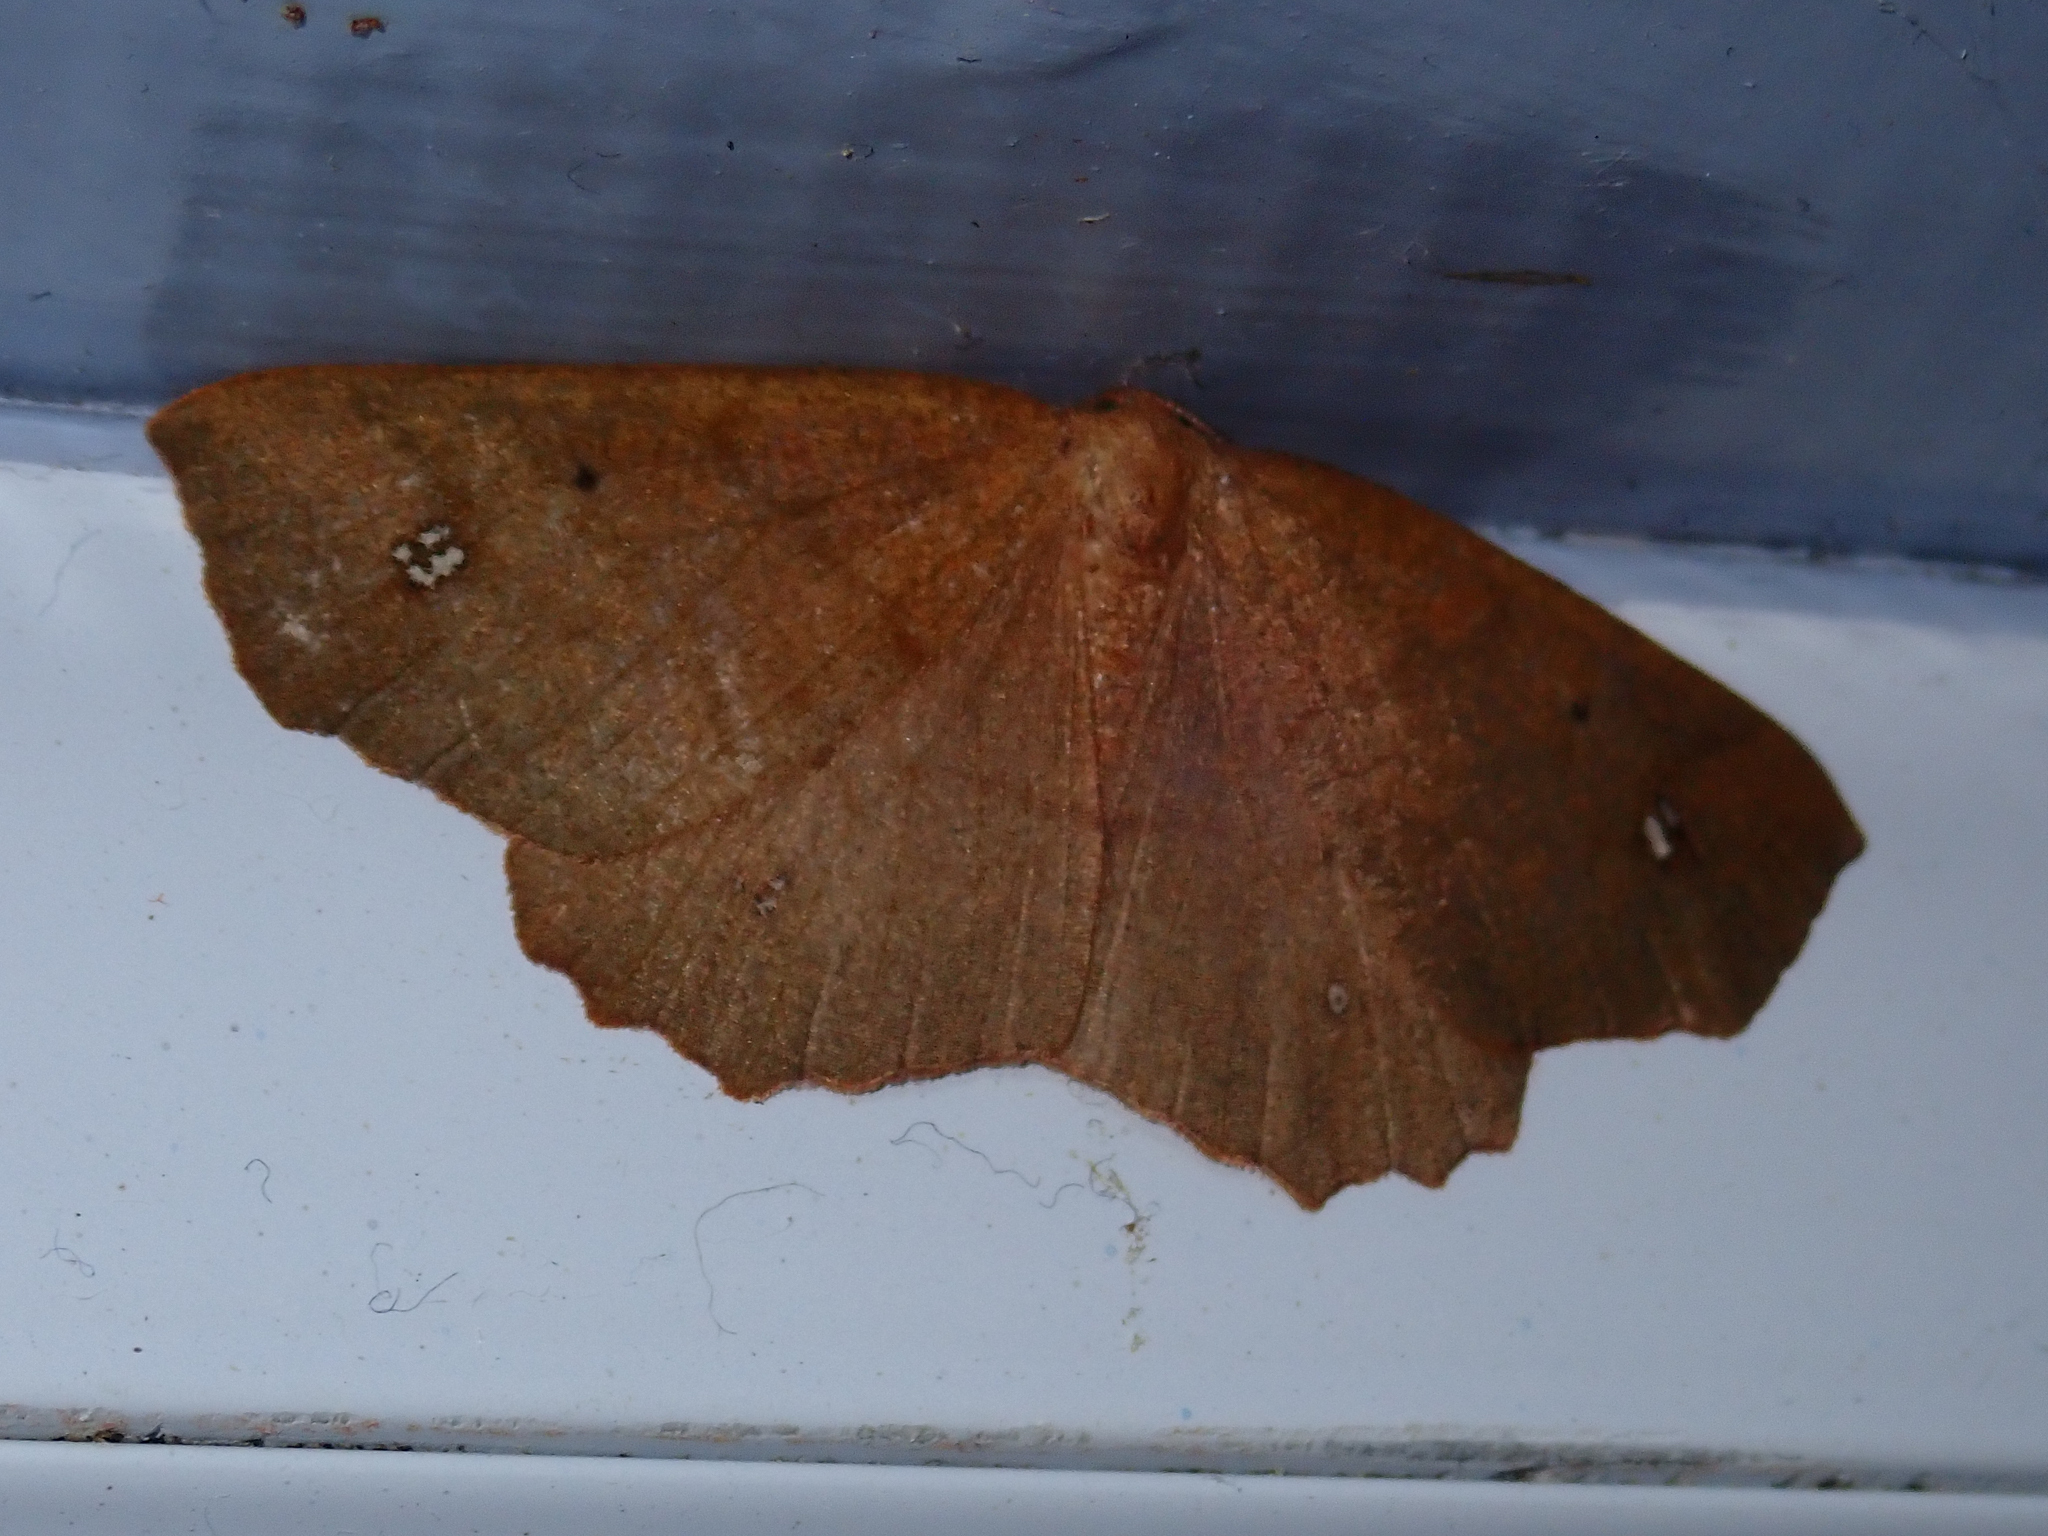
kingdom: Animalia
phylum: Arthropoda
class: Insecta
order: Lepidoptera
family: Geometridae
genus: Xyridacma
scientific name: Xyridacma ustaria
